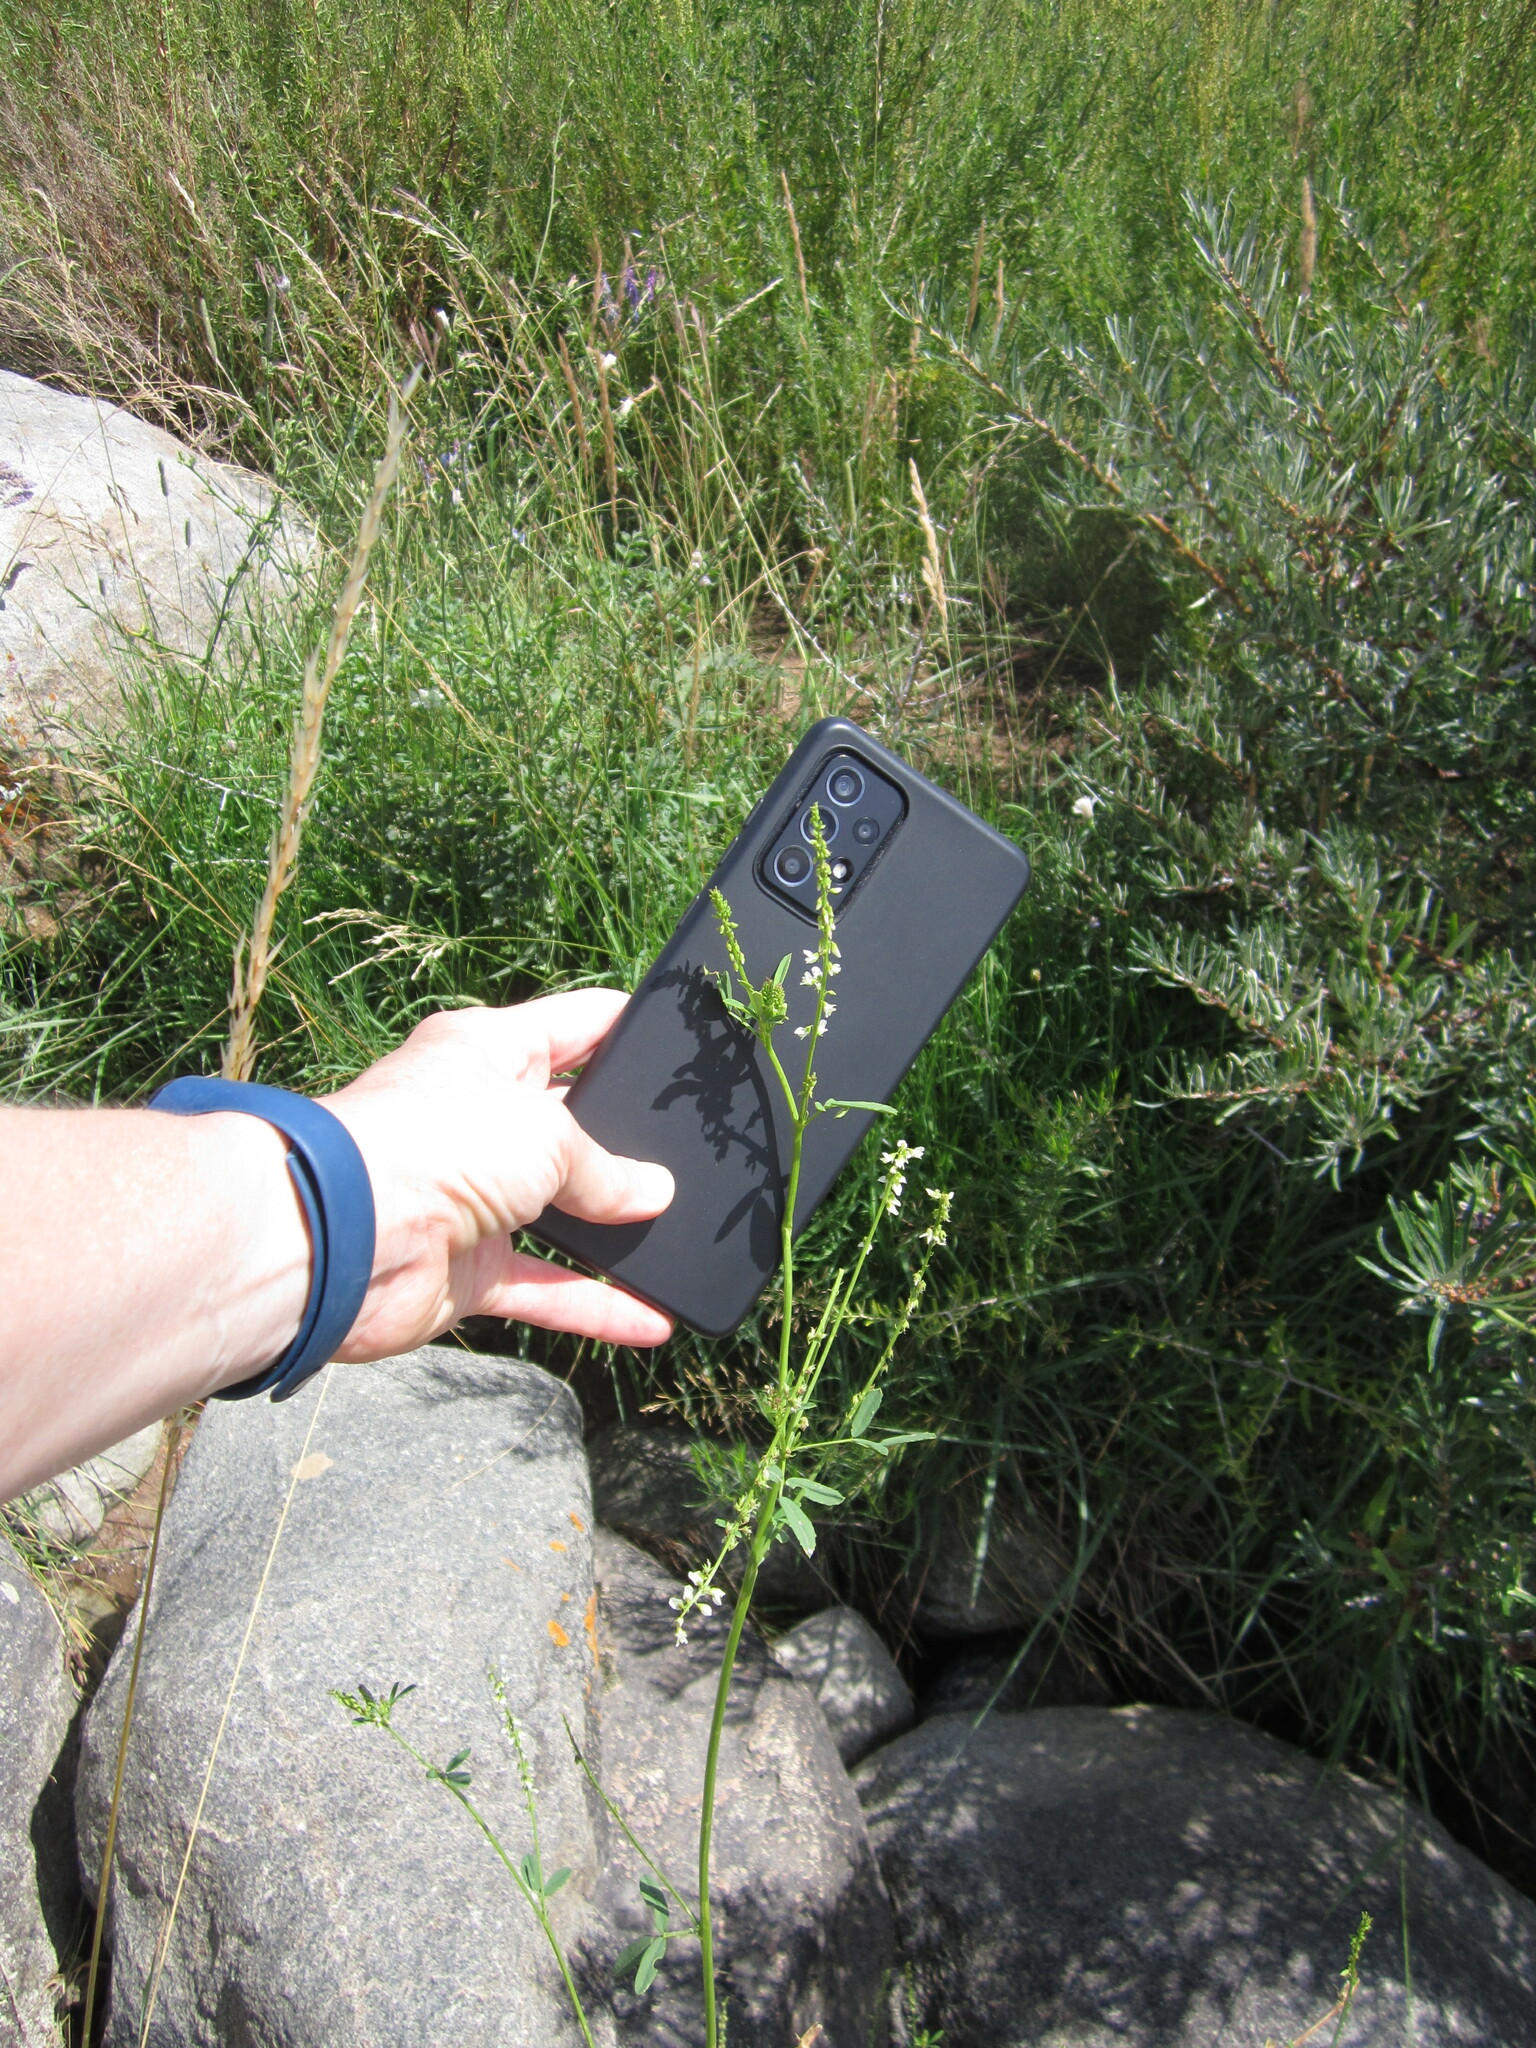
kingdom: Plantae
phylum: Tracheophyta
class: Magnoliopsida
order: Fabales
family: Fabaceae
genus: Melilotus
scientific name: Melilotus albus
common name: White melilot
